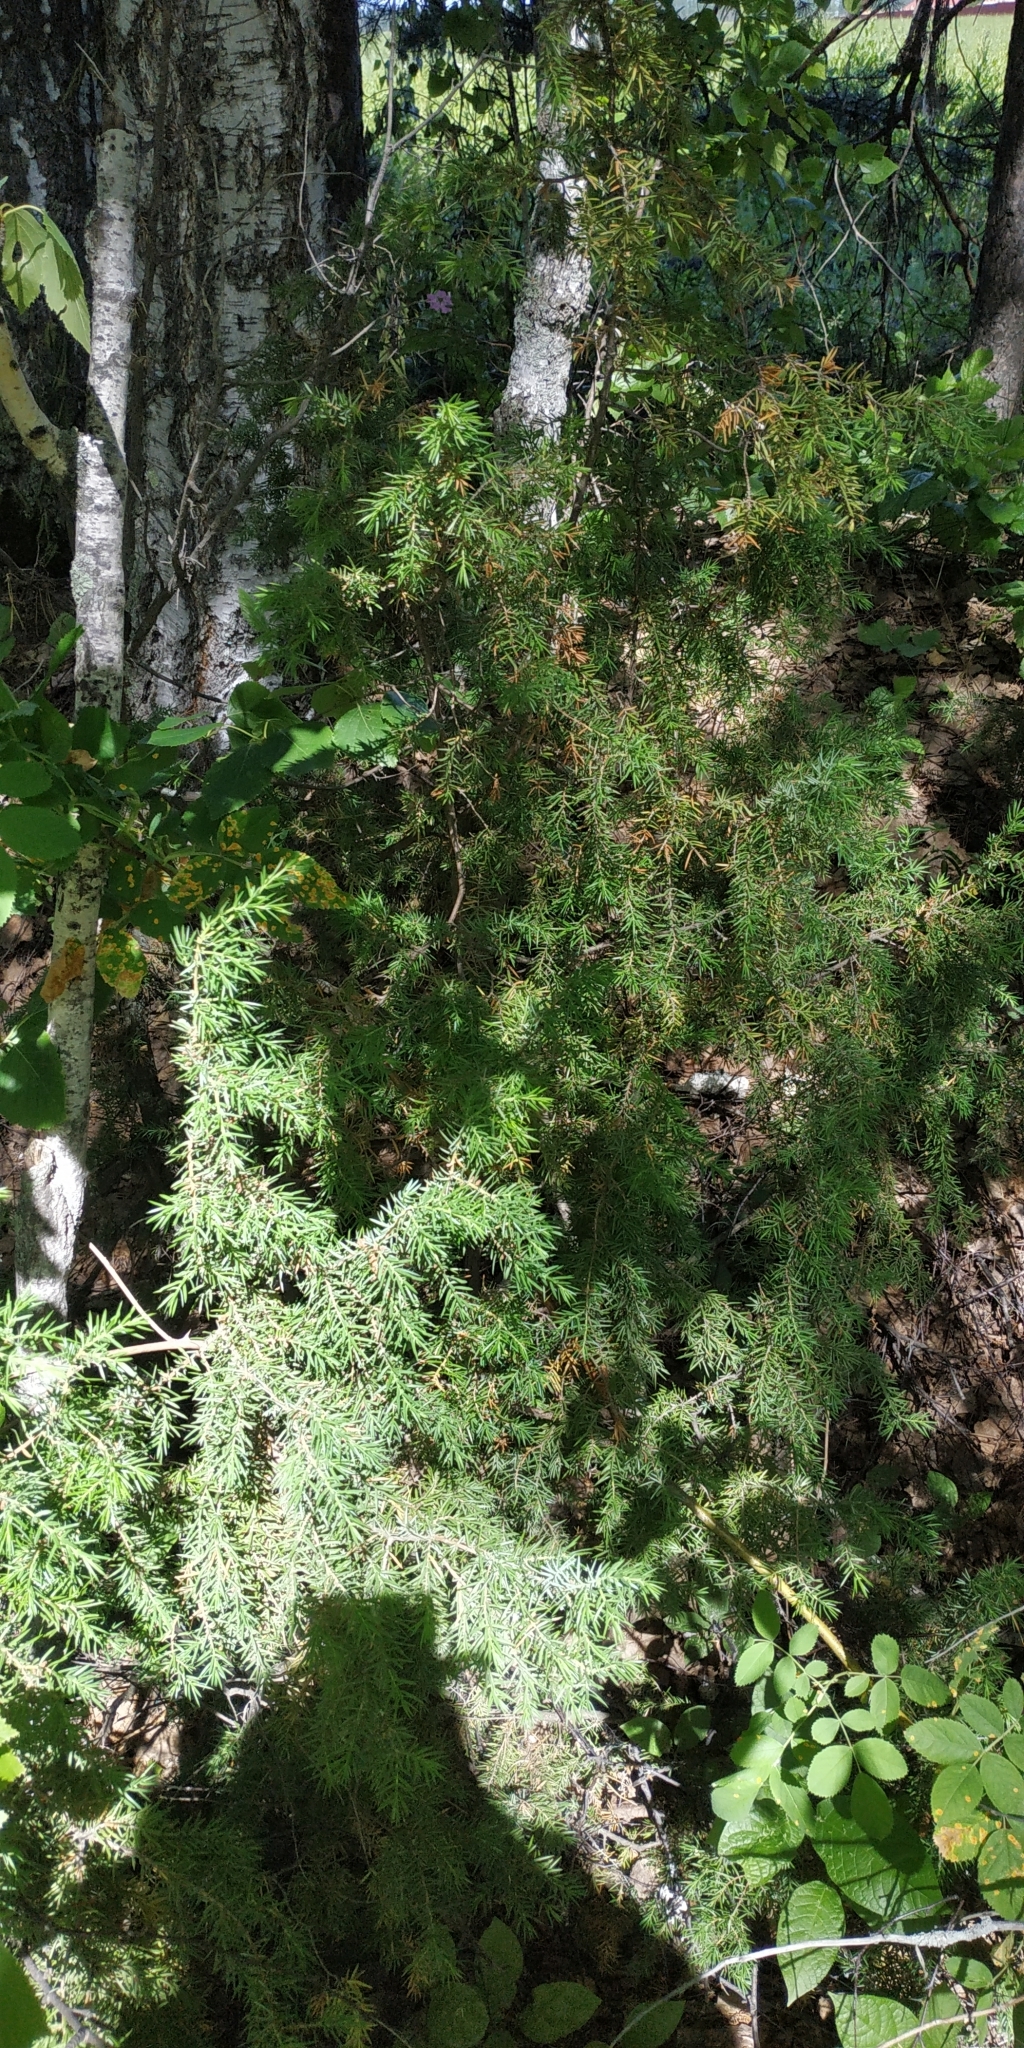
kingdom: Plantae
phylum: Tracheophyta
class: Pinopsida
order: Pinales
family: Cupressaceae
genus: Juniperus
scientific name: Juniperus communis
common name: Common juniper
